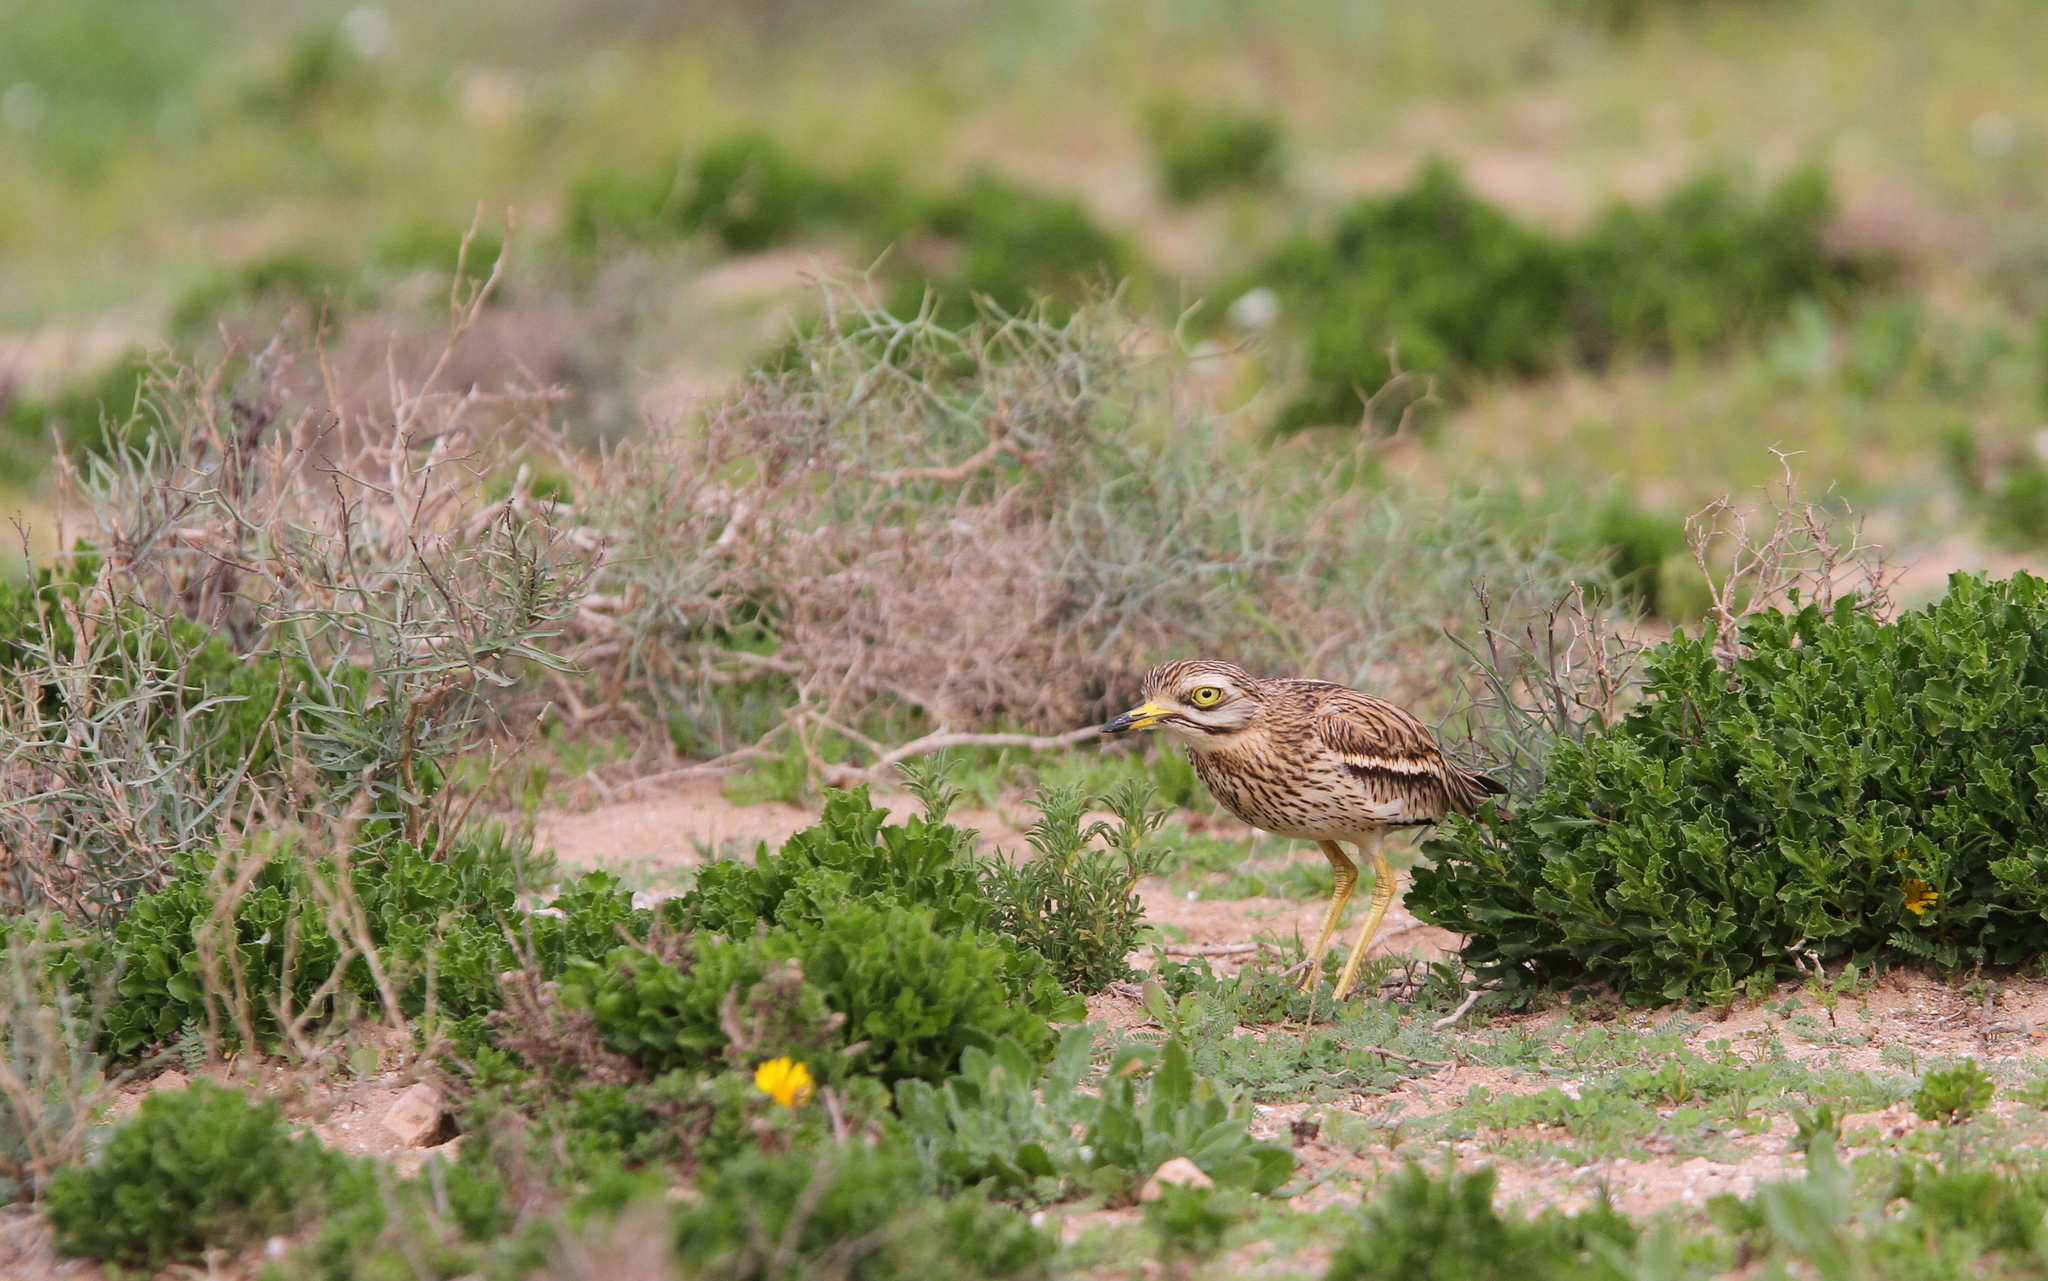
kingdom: Animalia
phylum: Chordata
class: Aves
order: Charadriiformes
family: Burhinidae
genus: Burhinus
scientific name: Burhinus oedicnemus
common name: Eurasian stone-curlew
